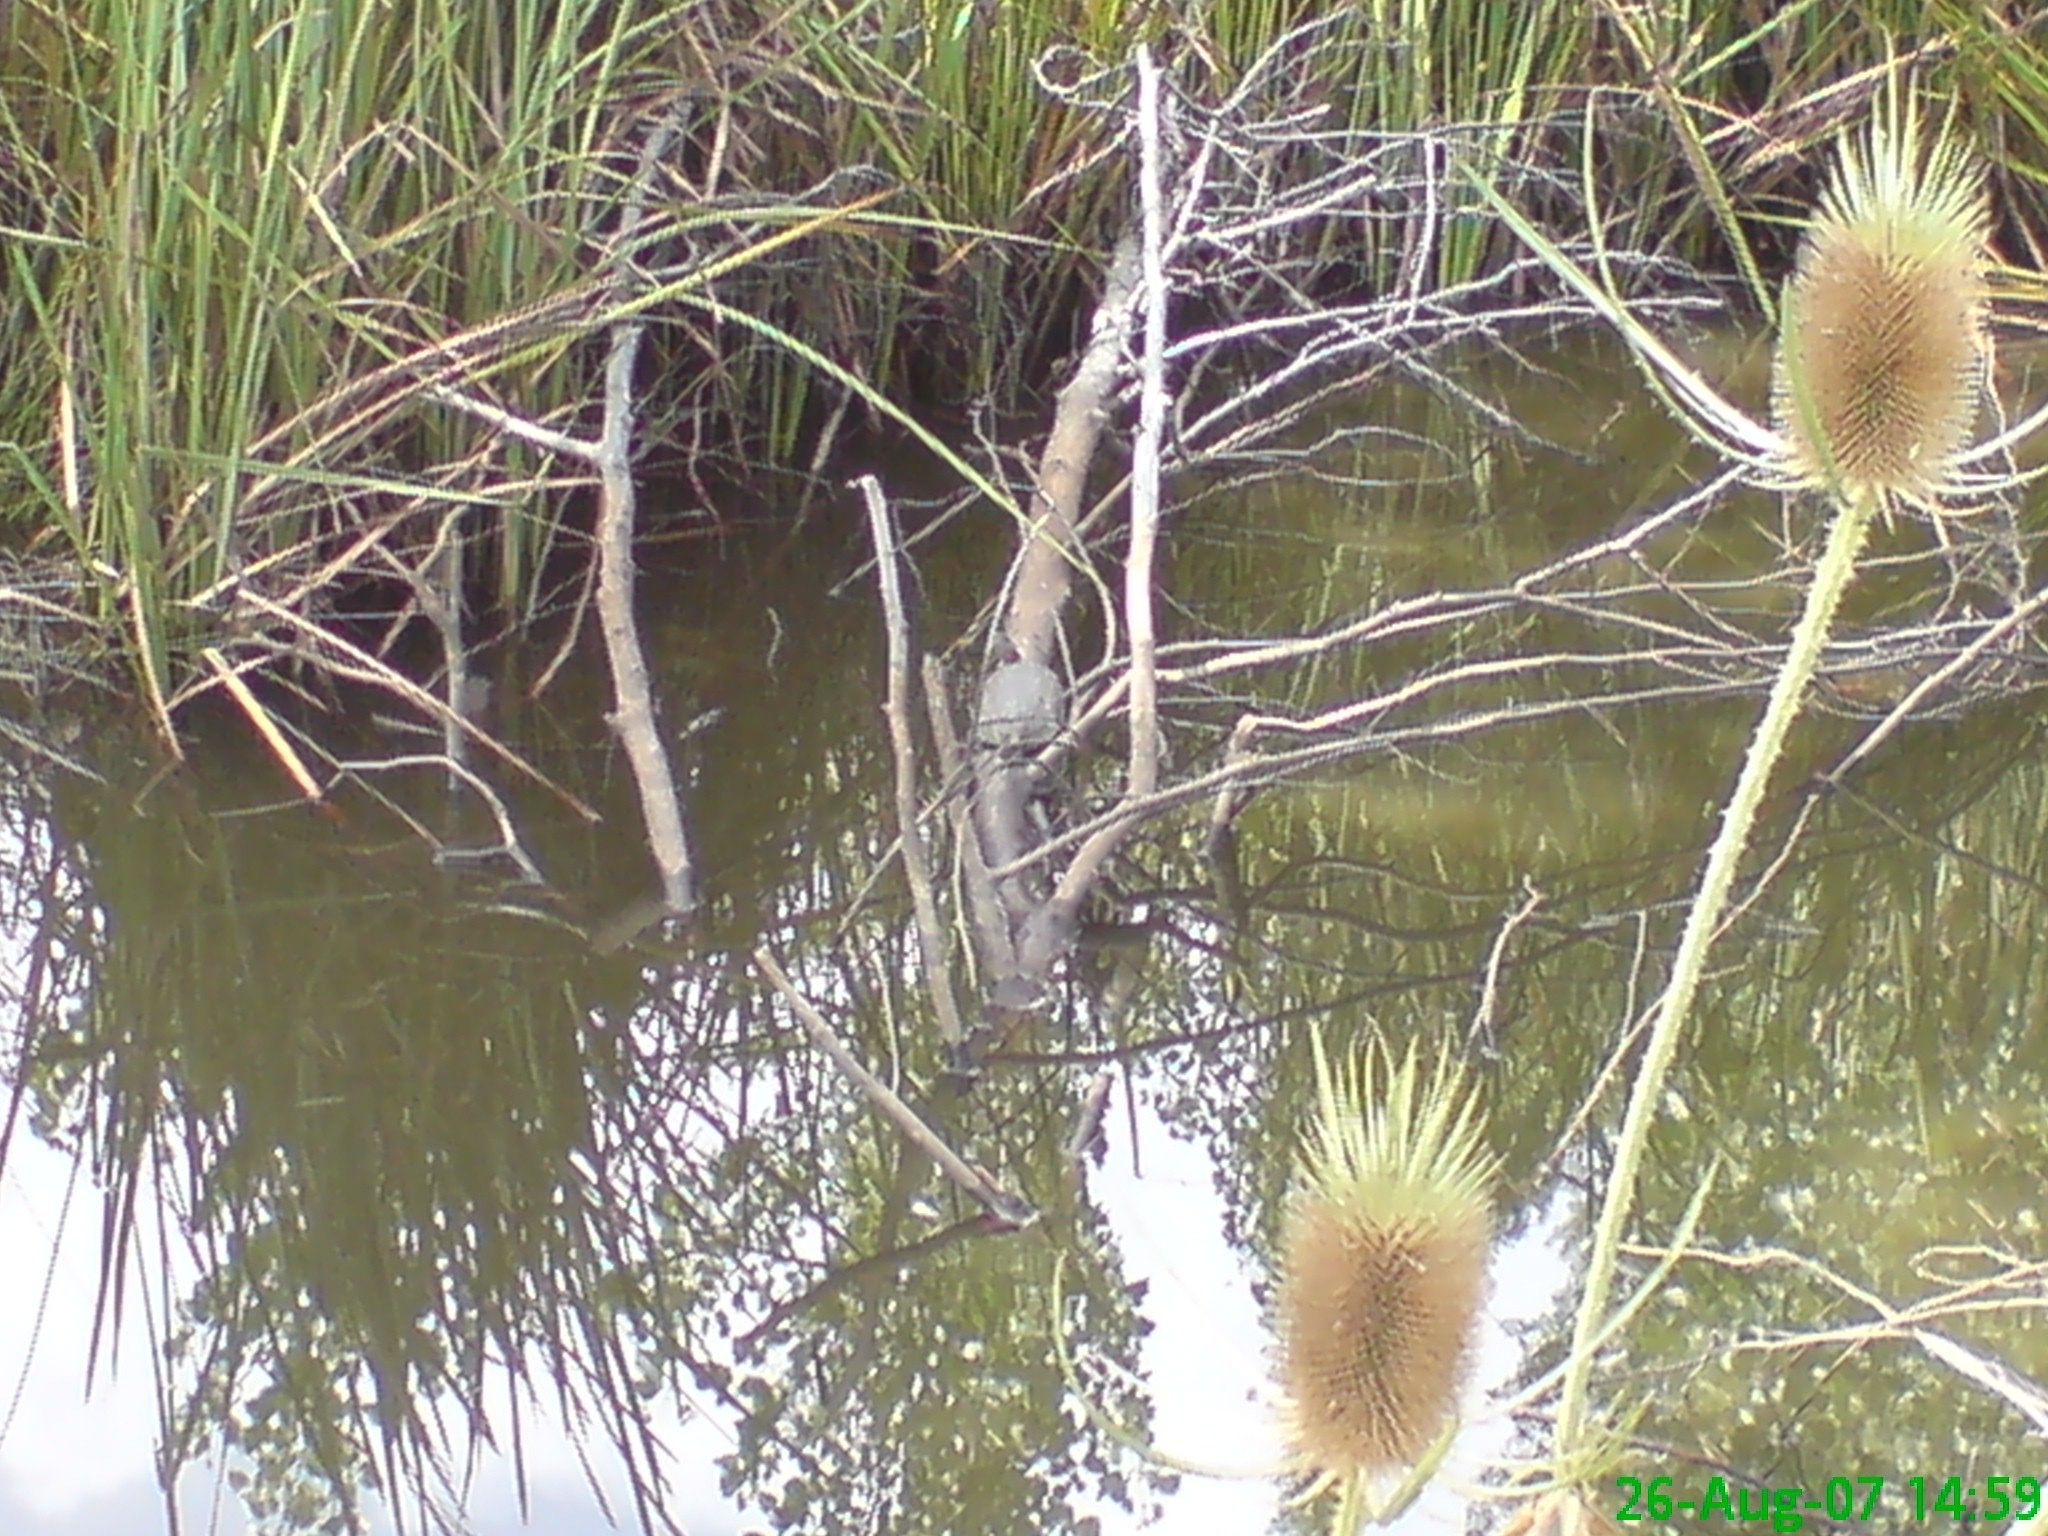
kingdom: Animalia
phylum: Chordata
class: Testudines
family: Geoemydidae
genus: Mauremys
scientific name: Mauremys leprosa
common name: Mediterranean pond turtle
